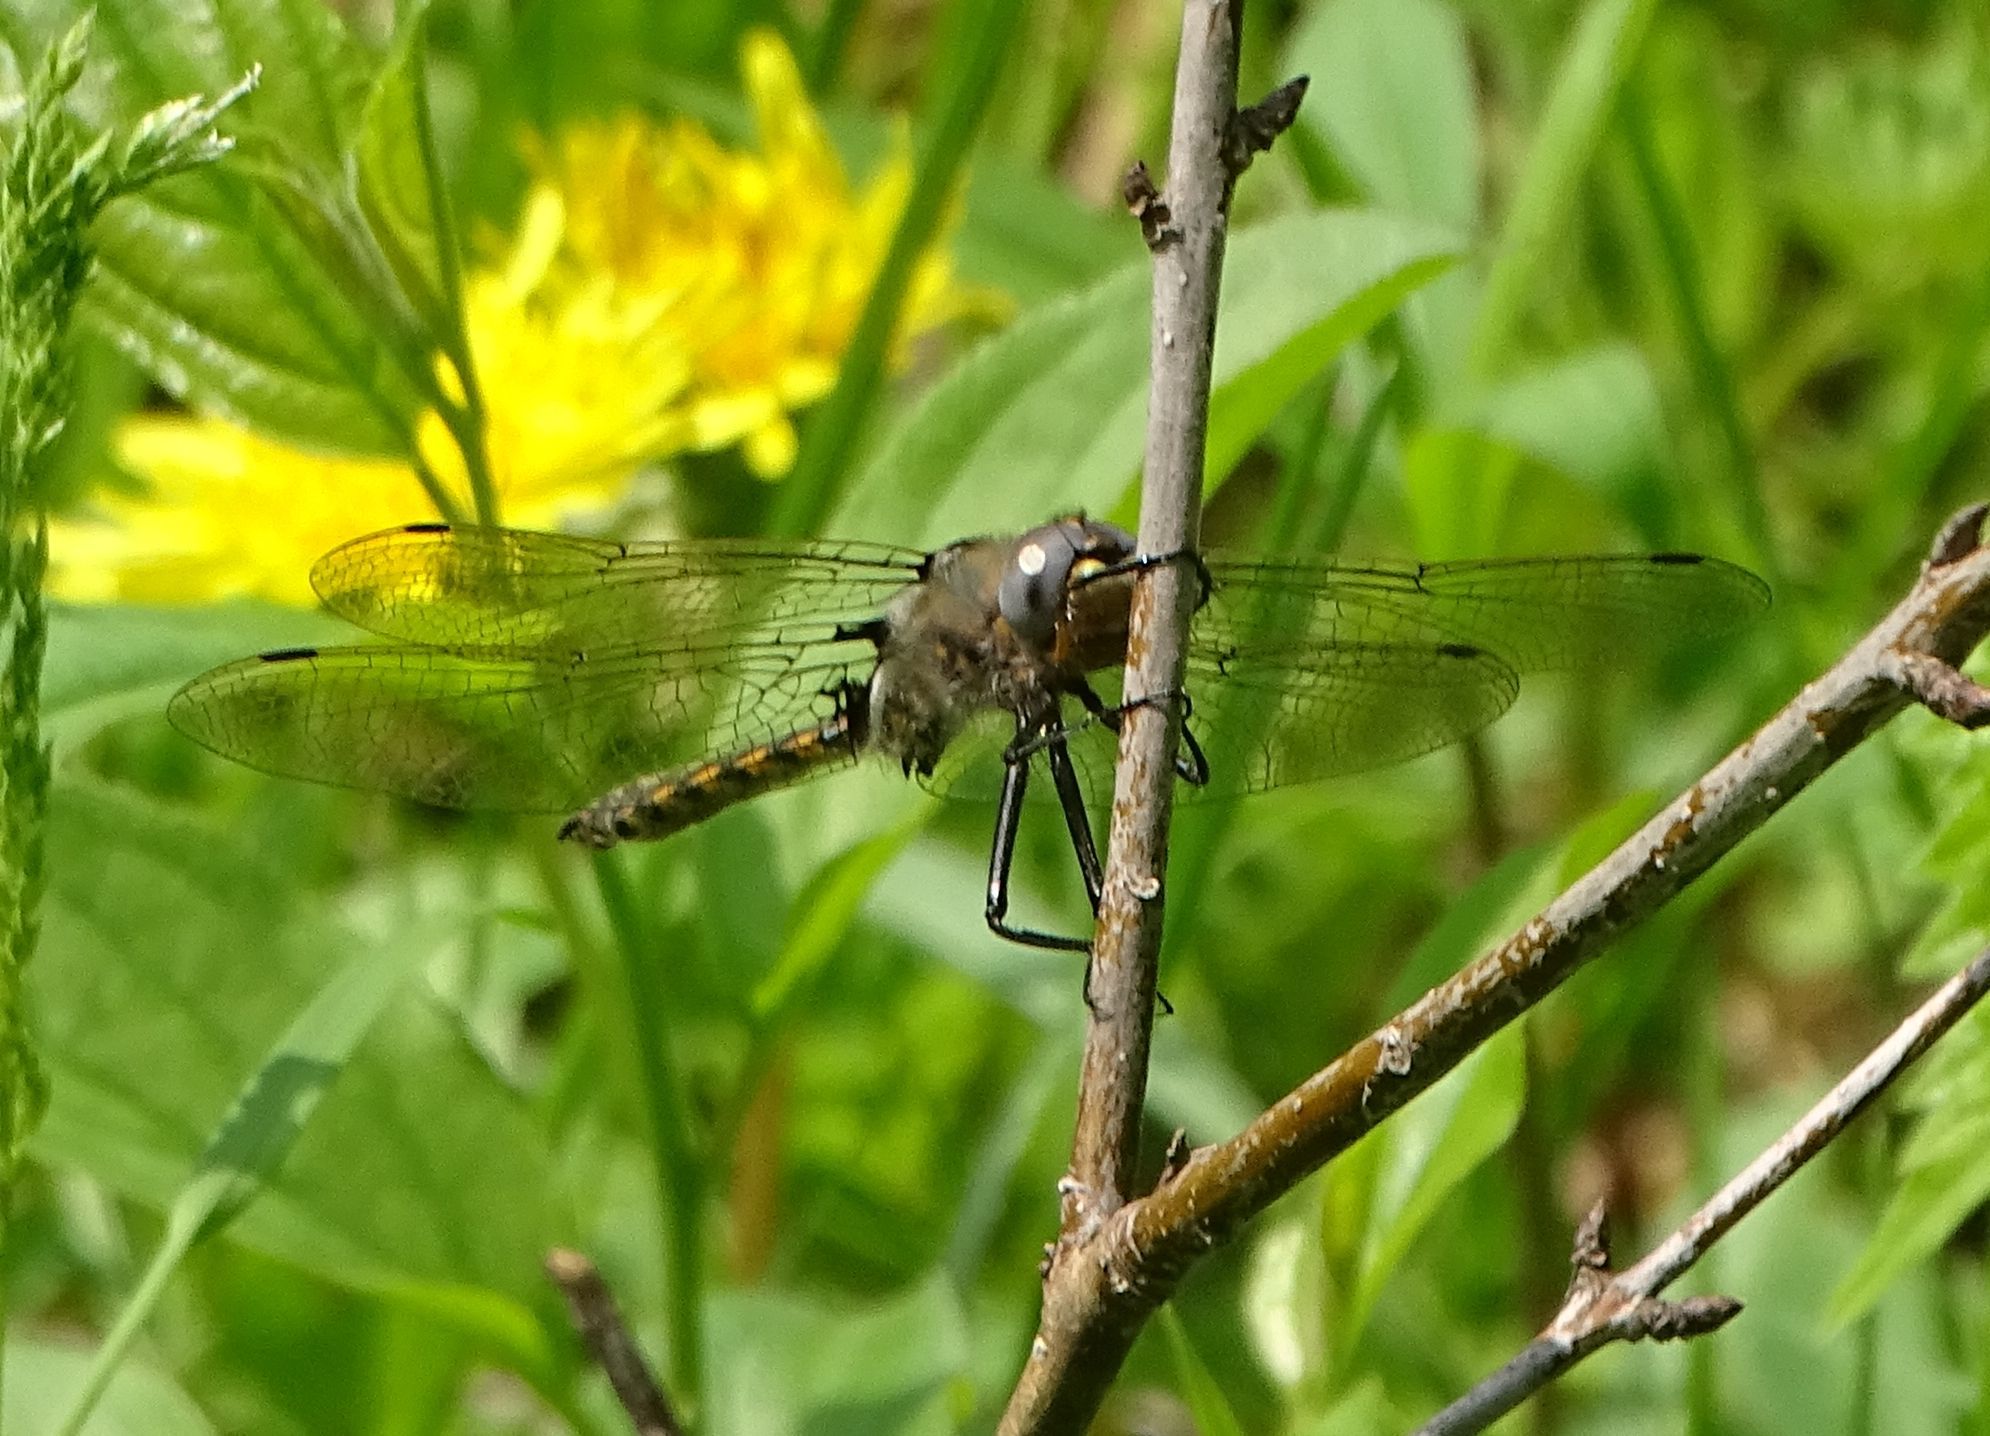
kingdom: Animalia
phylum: Arthropoda
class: Insecta
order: Odonata
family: Corduliidae
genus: Epitheca
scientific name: Epitheca canis
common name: Beaverpond baskettail
